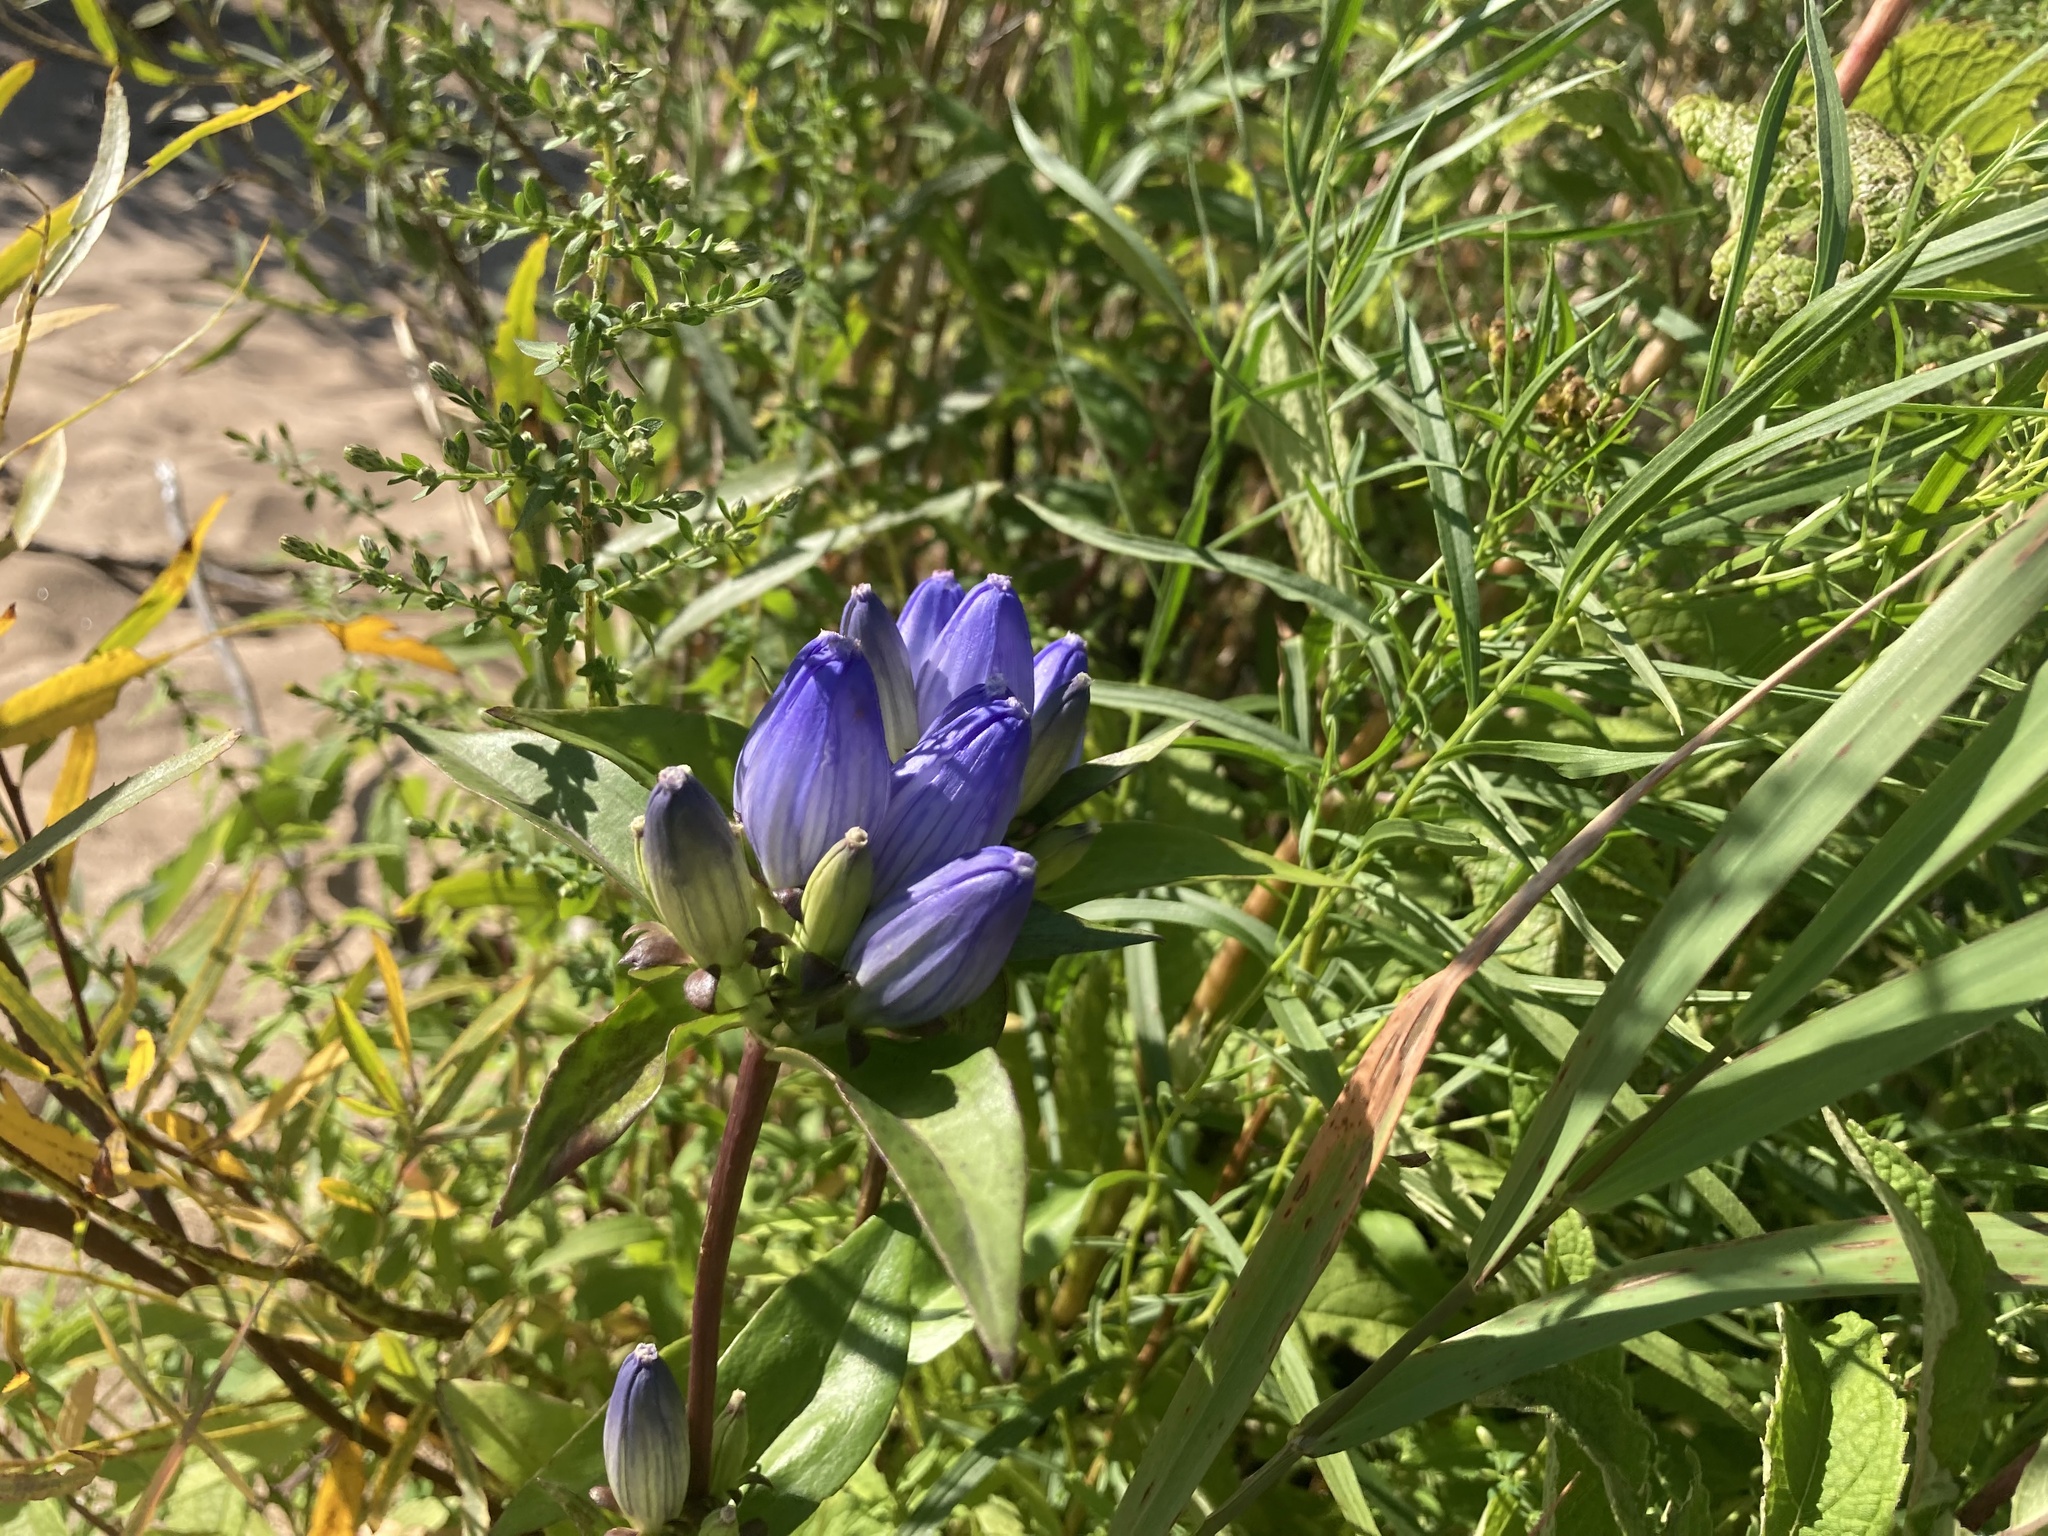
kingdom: Plantae
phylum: Tracheophyta
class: Magnoliopsida
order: Gentianales
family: Gentianaceae
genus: Gentiana
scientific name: Gentiana andrewsii
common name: Bottle gentian
